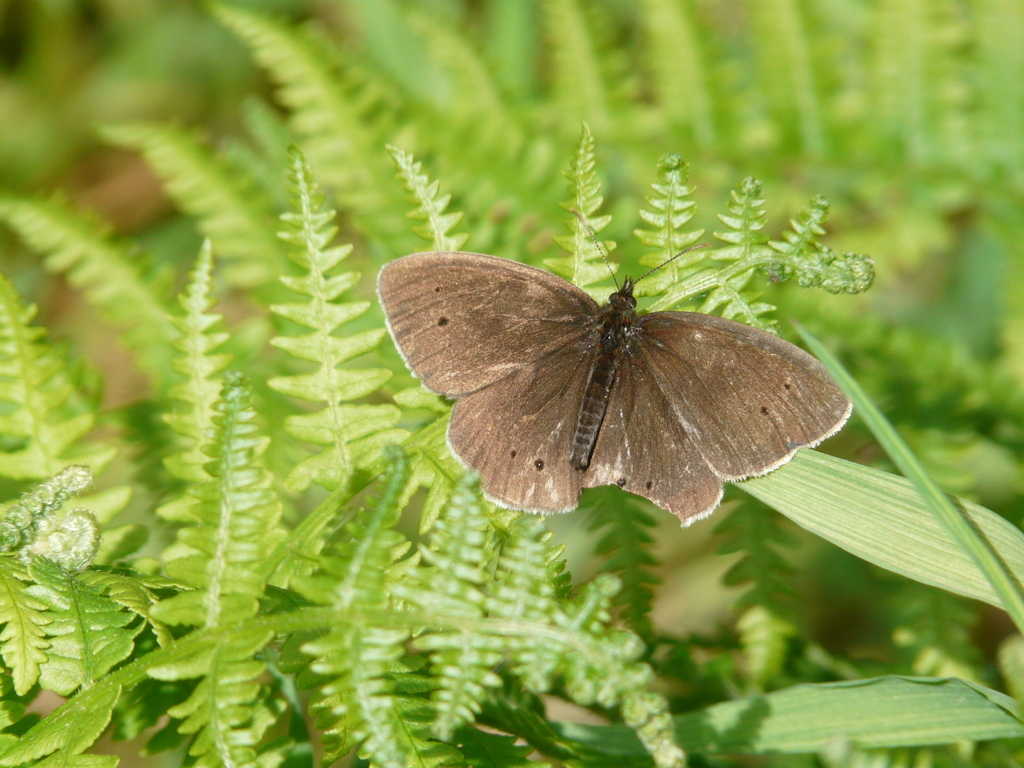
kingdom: Animalia
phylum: Arthropoda
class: Insecta
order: Lepidoptera
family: Nymphalidae
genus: Aphantopus
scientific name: Aphantopus hyperantus
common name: Ringlet
